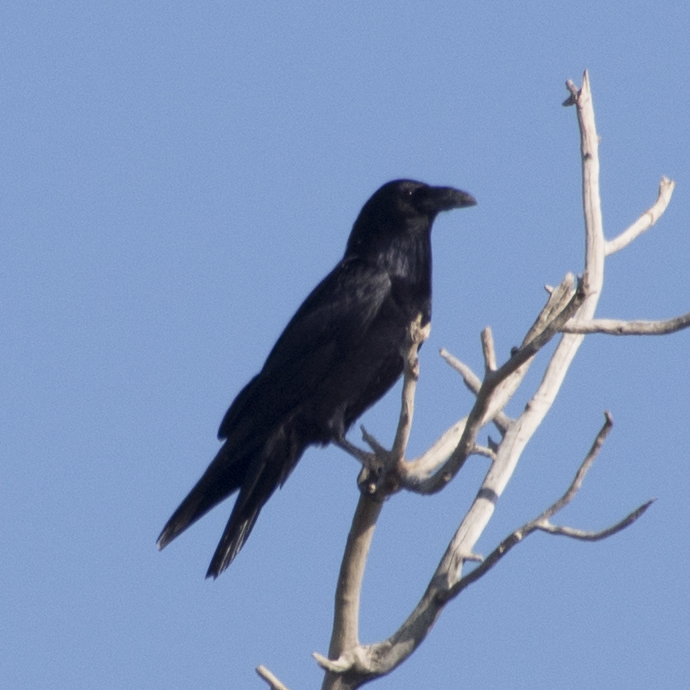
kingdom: Animalia
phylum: Chordata
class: Aves
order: Passeriformes
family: Corvidae
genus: Corvus
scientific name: Corvus corax
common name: Common raven
